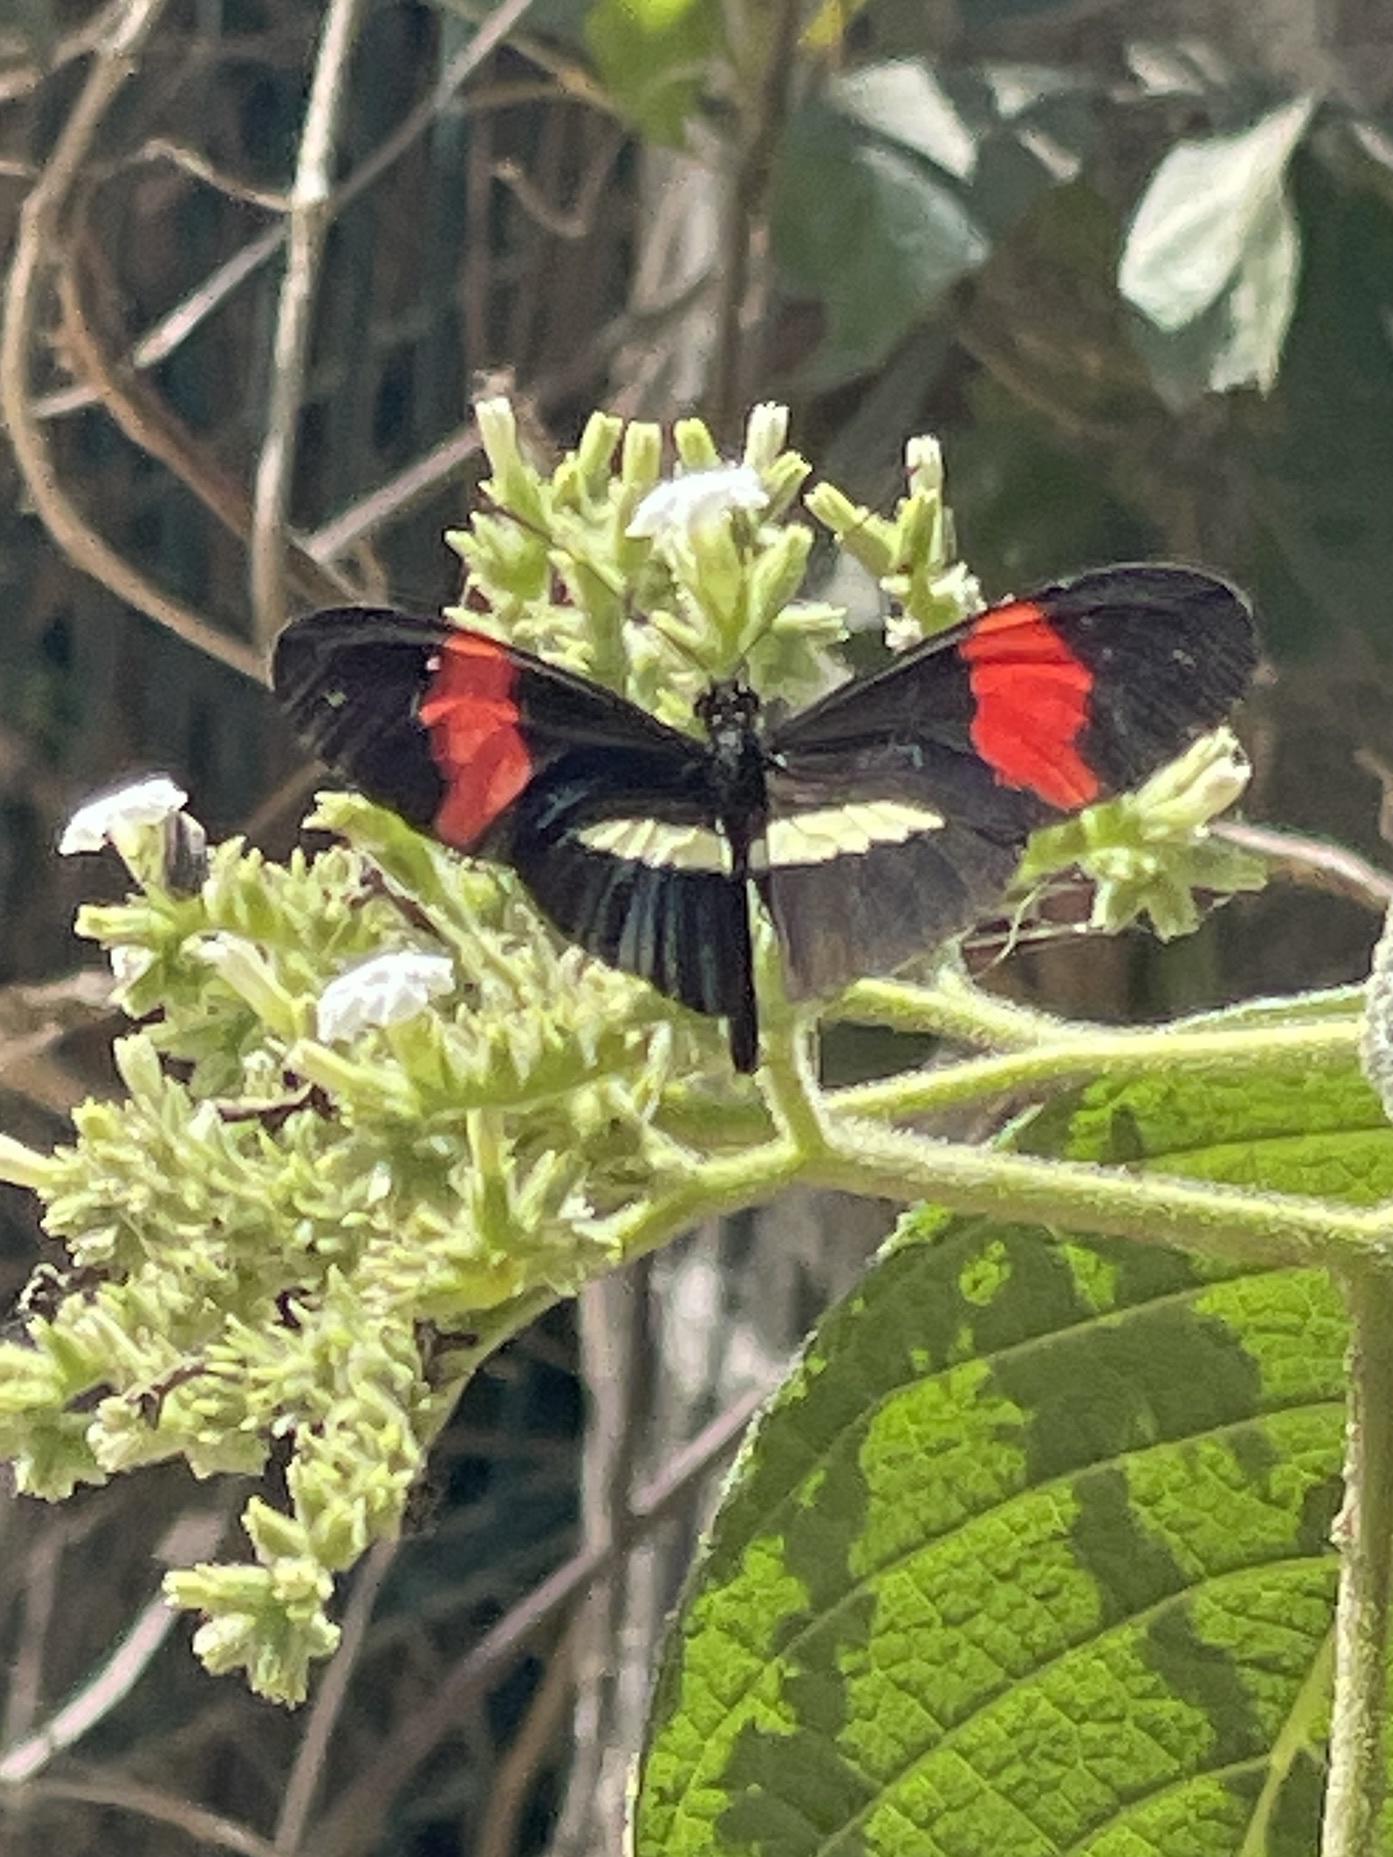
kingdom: Animalia
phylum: Arthropoda
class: Insecta
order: Lepidoptera
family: Nymphalidae
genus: Heliconius
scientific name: Heliconius erato
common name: Common patch longwing
